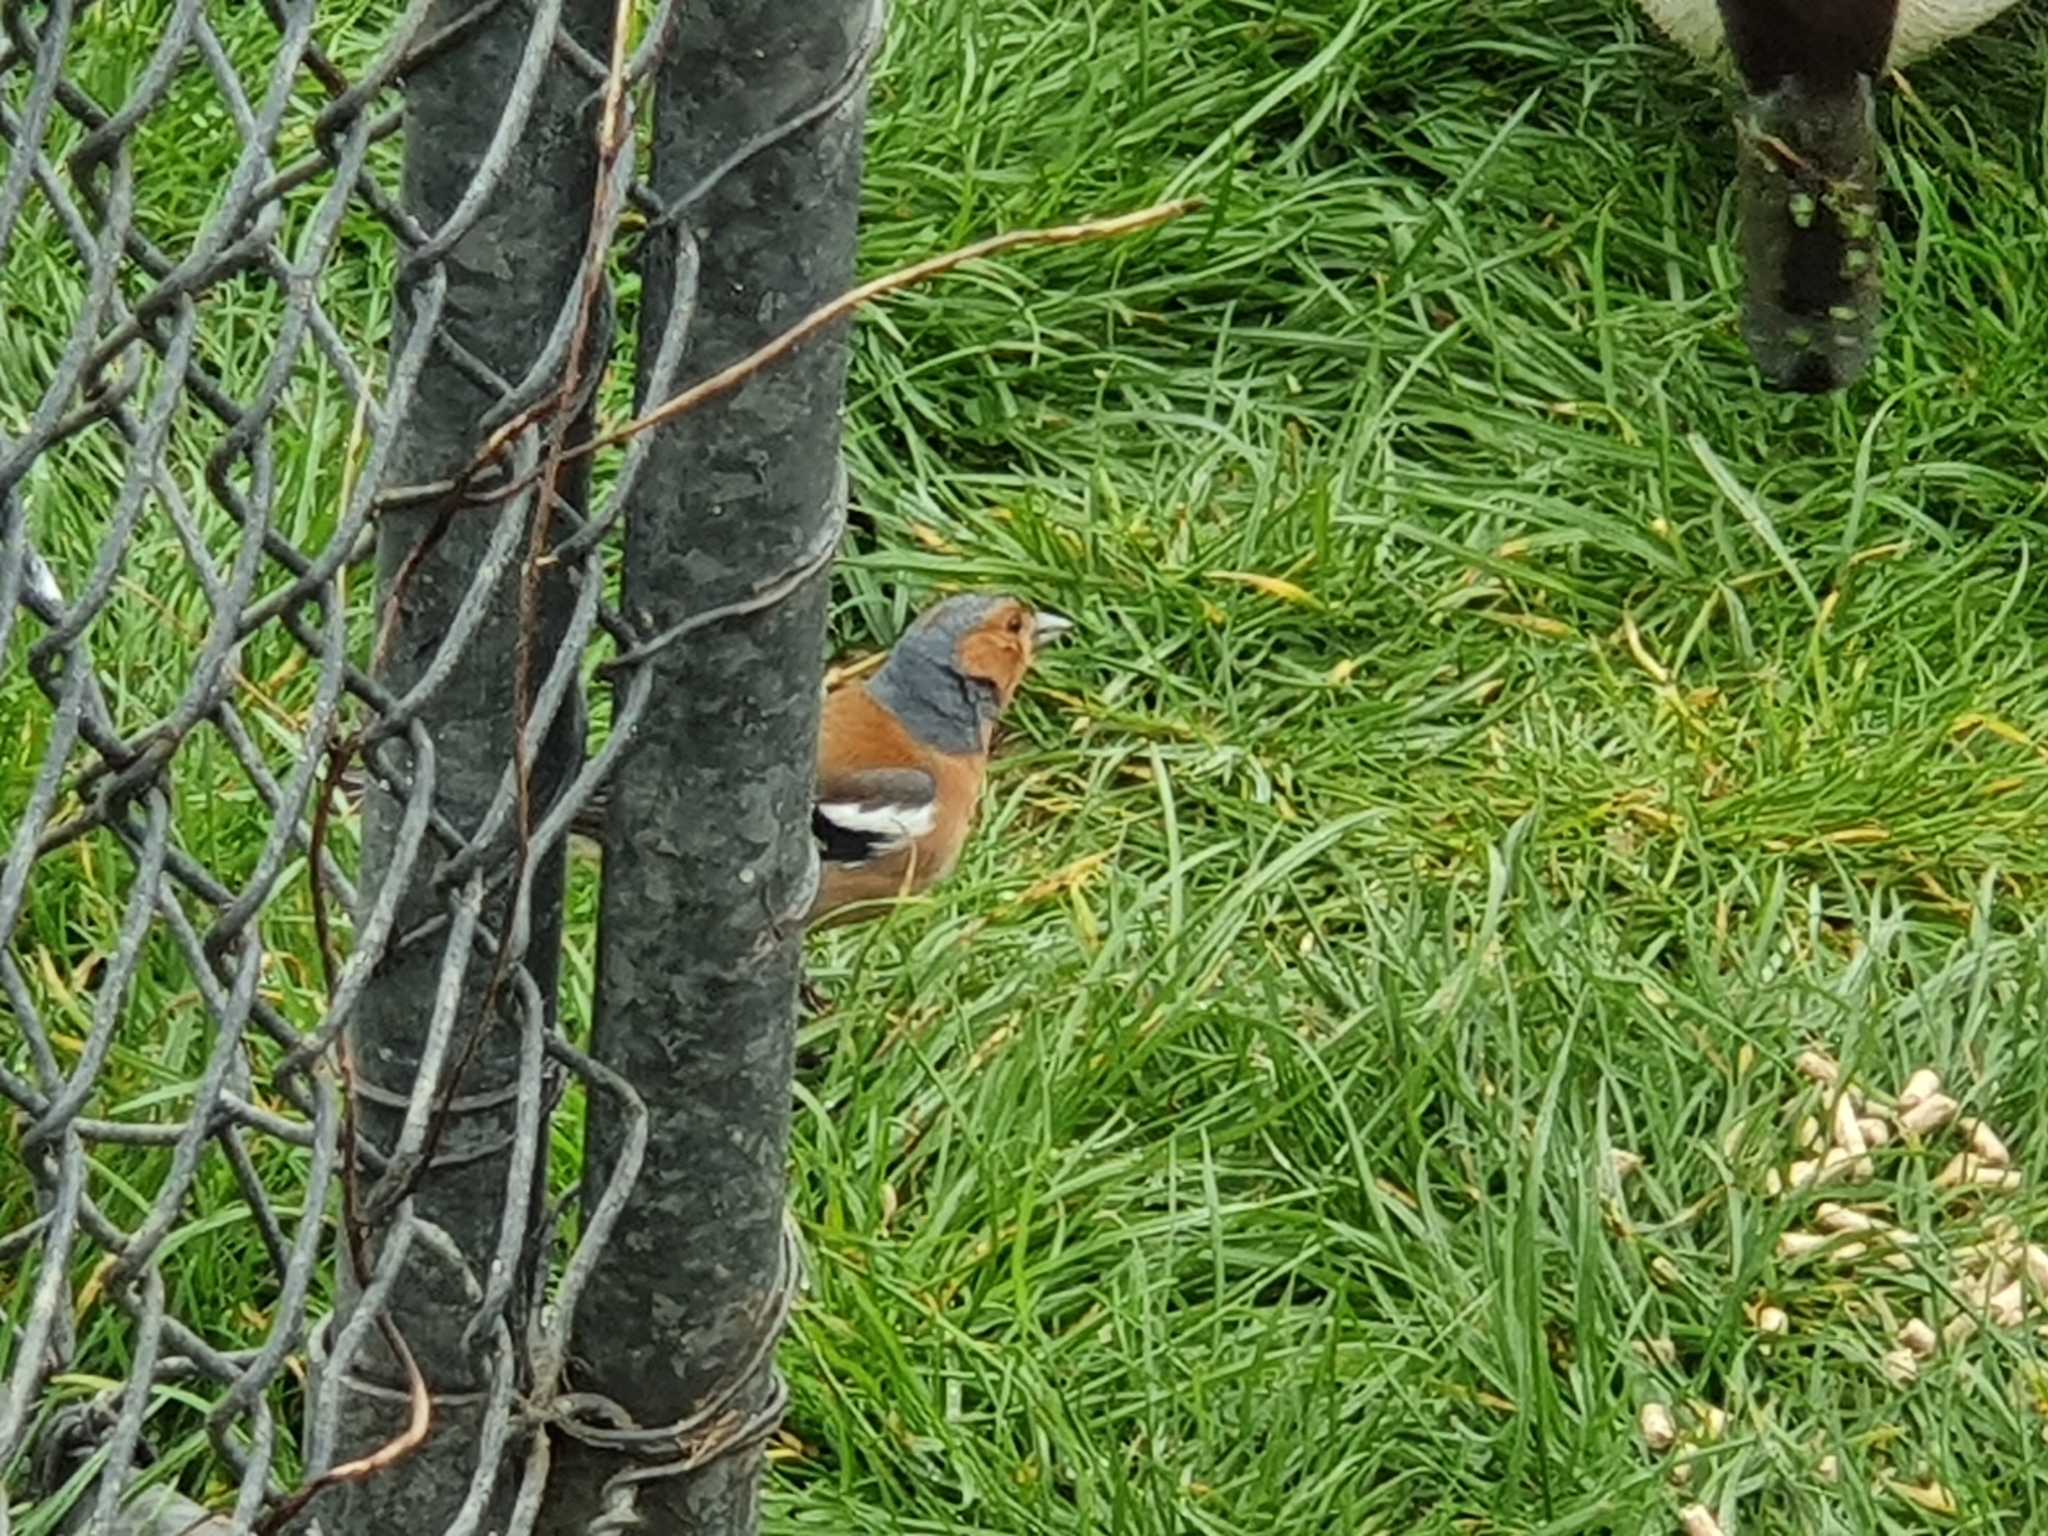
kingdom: Animalia
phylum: Chordata
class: Aves
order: Passeriformes
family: Fringillidae
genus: Fringilla
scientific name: Fringilla coelebs
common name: Common chaffinch
